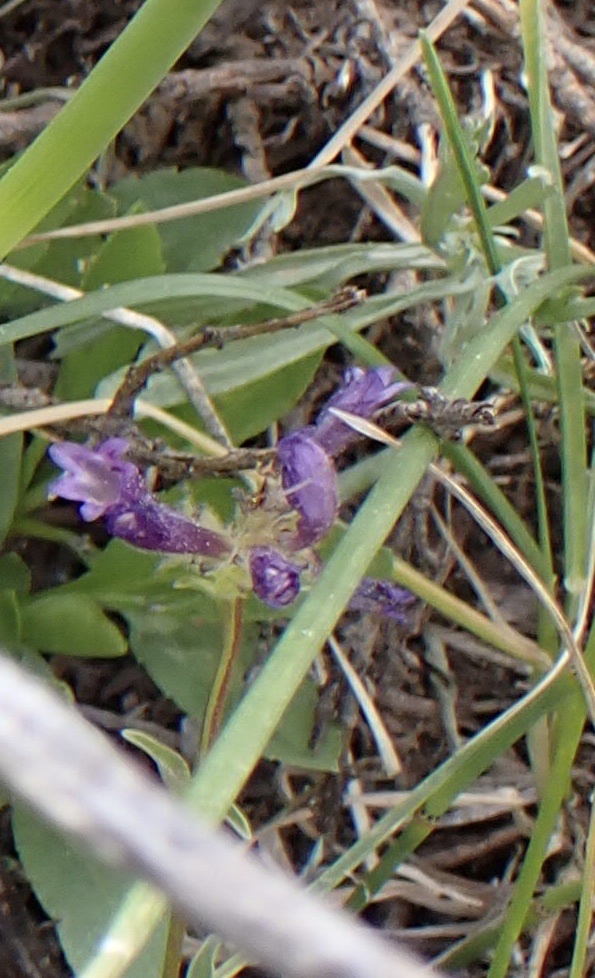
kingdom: Plantae
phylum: Tracheophyta
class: Magnoliopsida
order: Lamiales
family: Plantaginaceae
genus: Penstemon
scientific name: Penstemon heterodoxus
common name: Sierran penstemon
